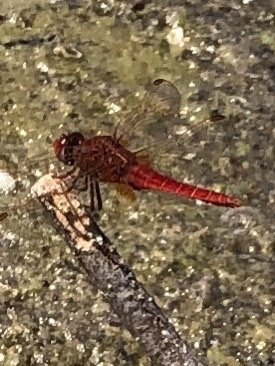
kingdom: Animalia
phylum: Arthropoda
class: Insecta
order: Odonata
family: Libellulidae
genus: Crocothemis
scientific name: Crocothemis erythraea
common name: Scarlet dragonfly
